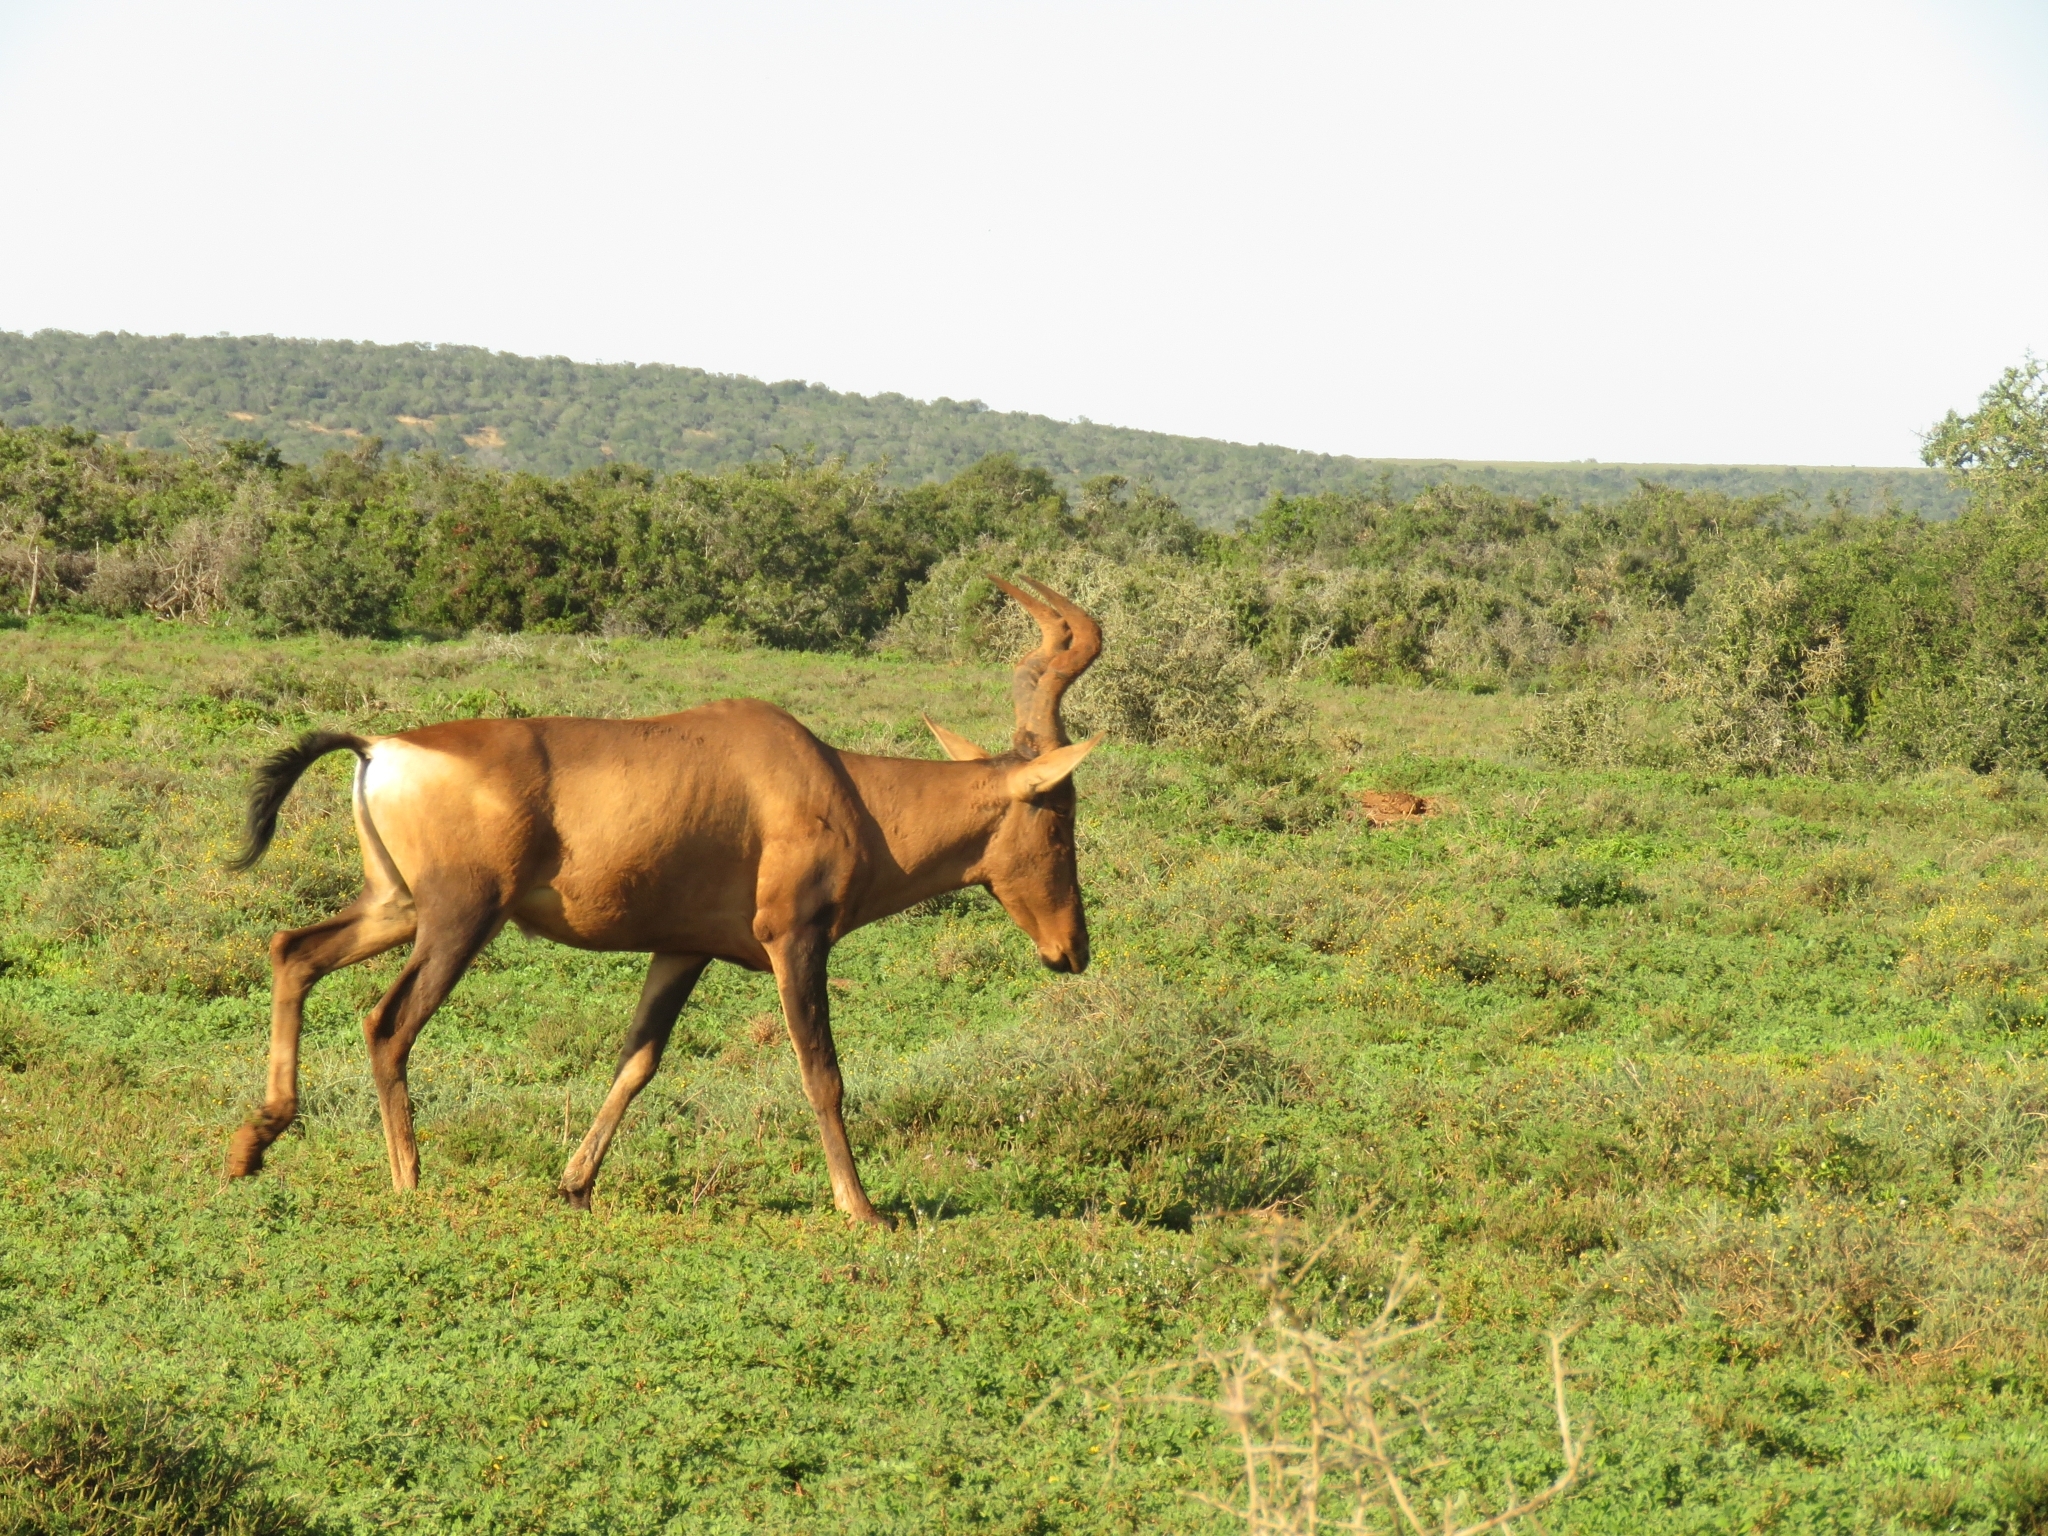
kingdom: Animalia
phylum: Chordata
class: Mammalia
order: Artiodactyla
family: Bovidae
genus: Alcelaphus
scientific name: Alcelaphus caama
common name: Red hartebeest
